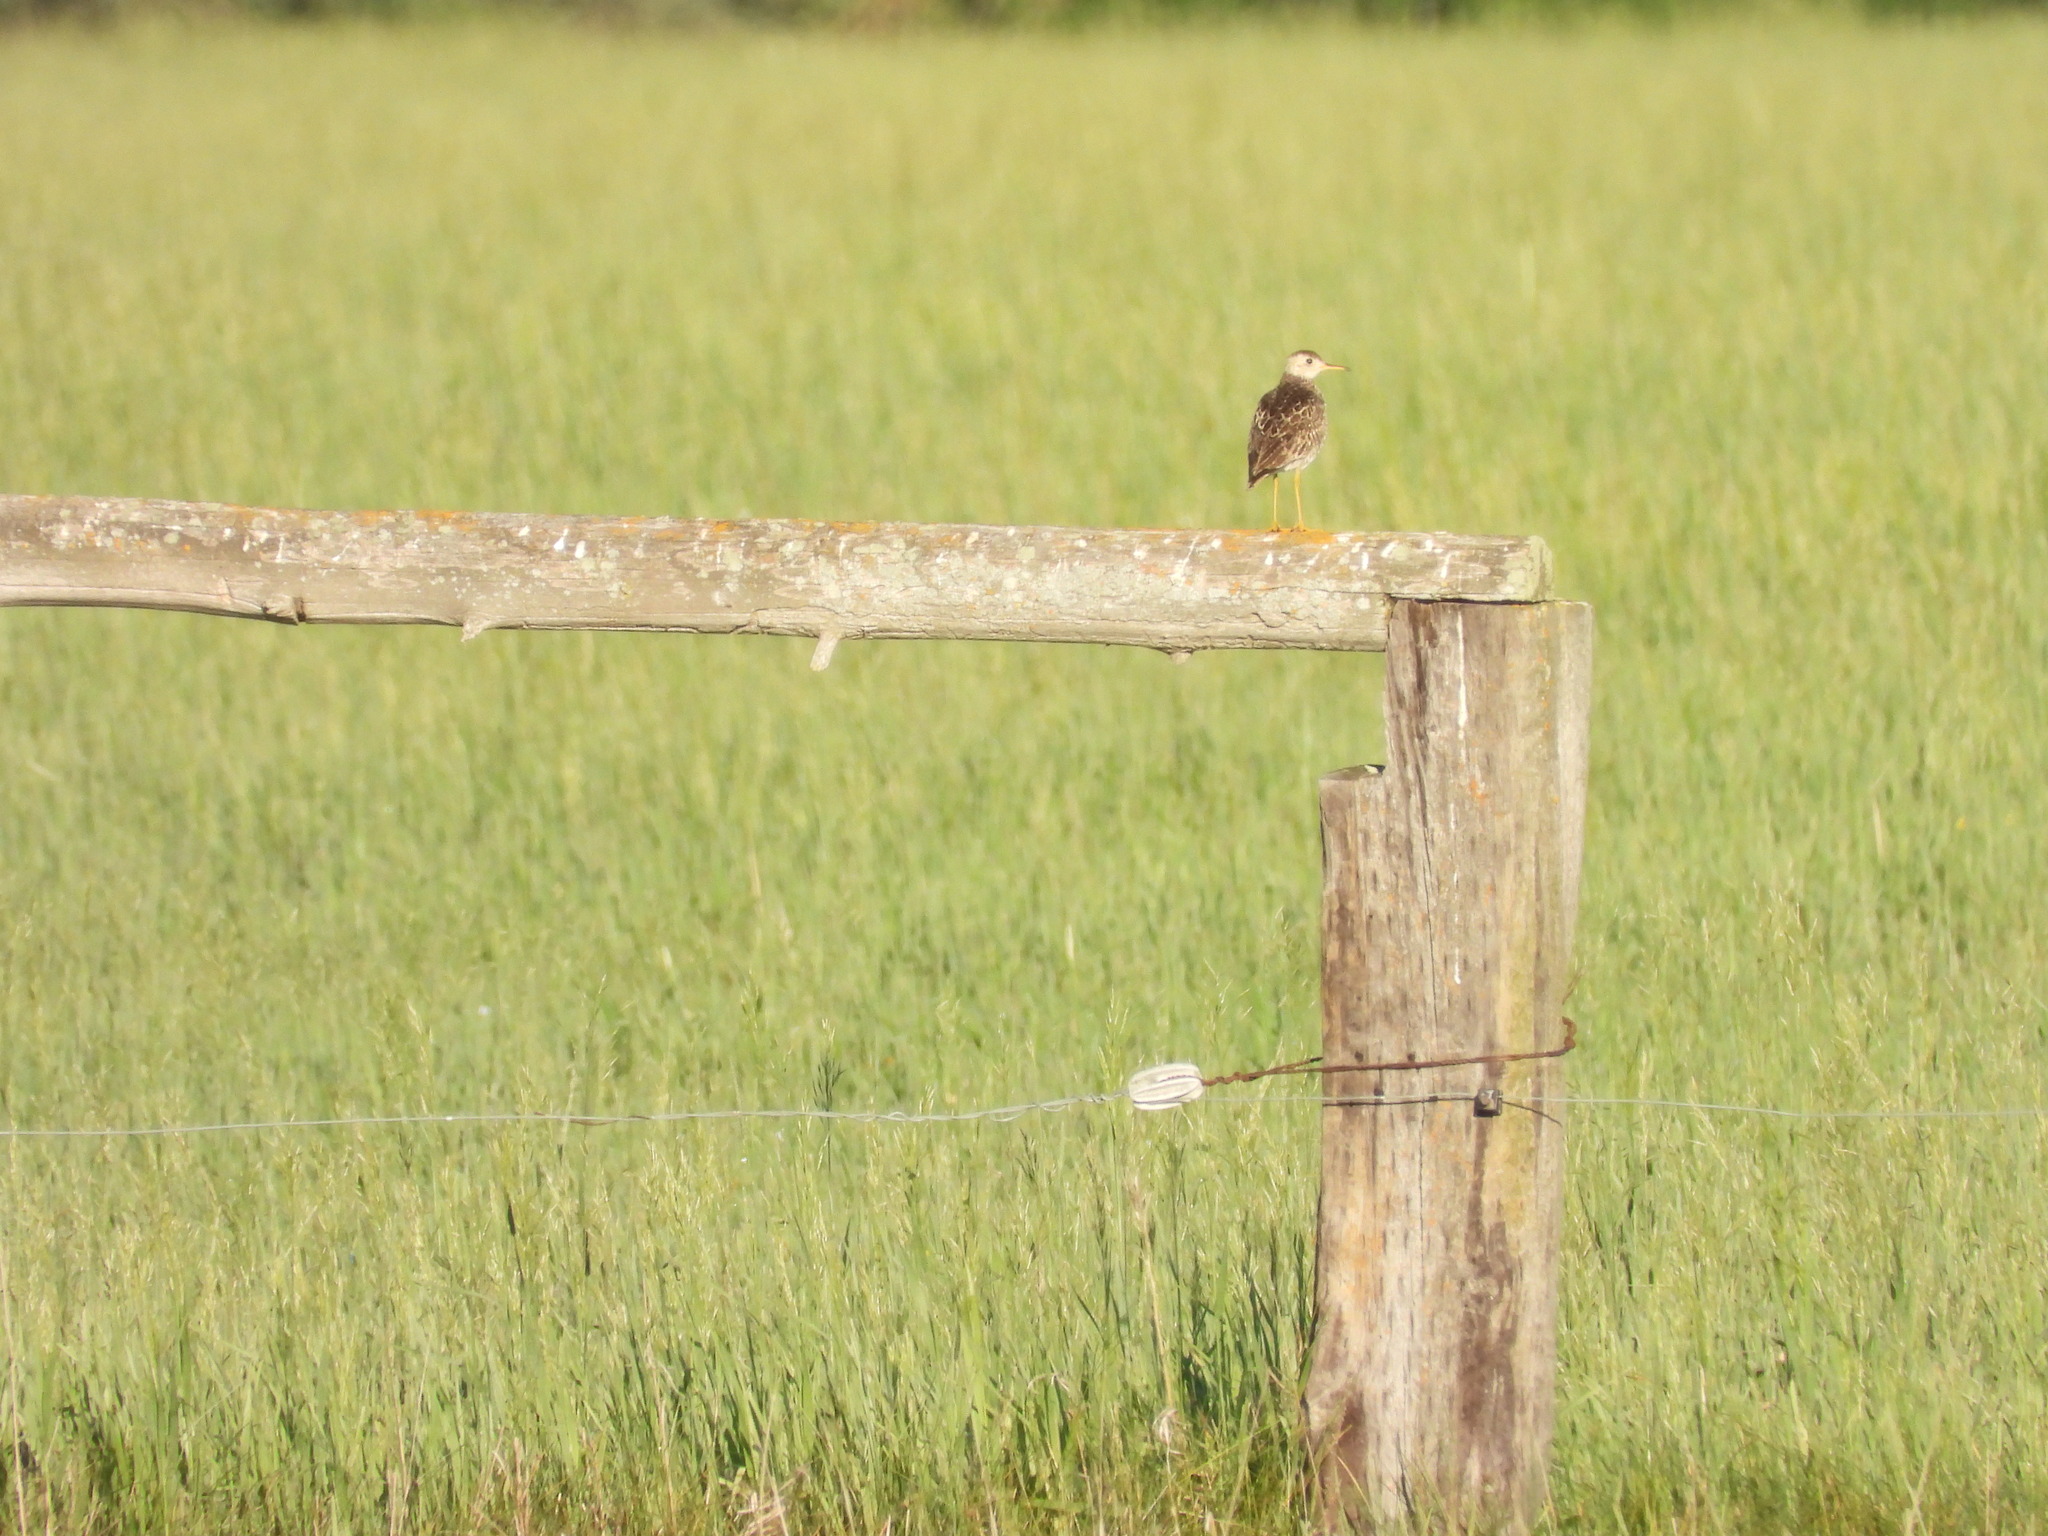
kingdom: Animalia
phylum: Chordata
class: Aves
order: Charadriiformes
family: Scolopacidae
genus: Bartramia
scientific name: Bartramia longicauda
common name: Upland sandpiper
